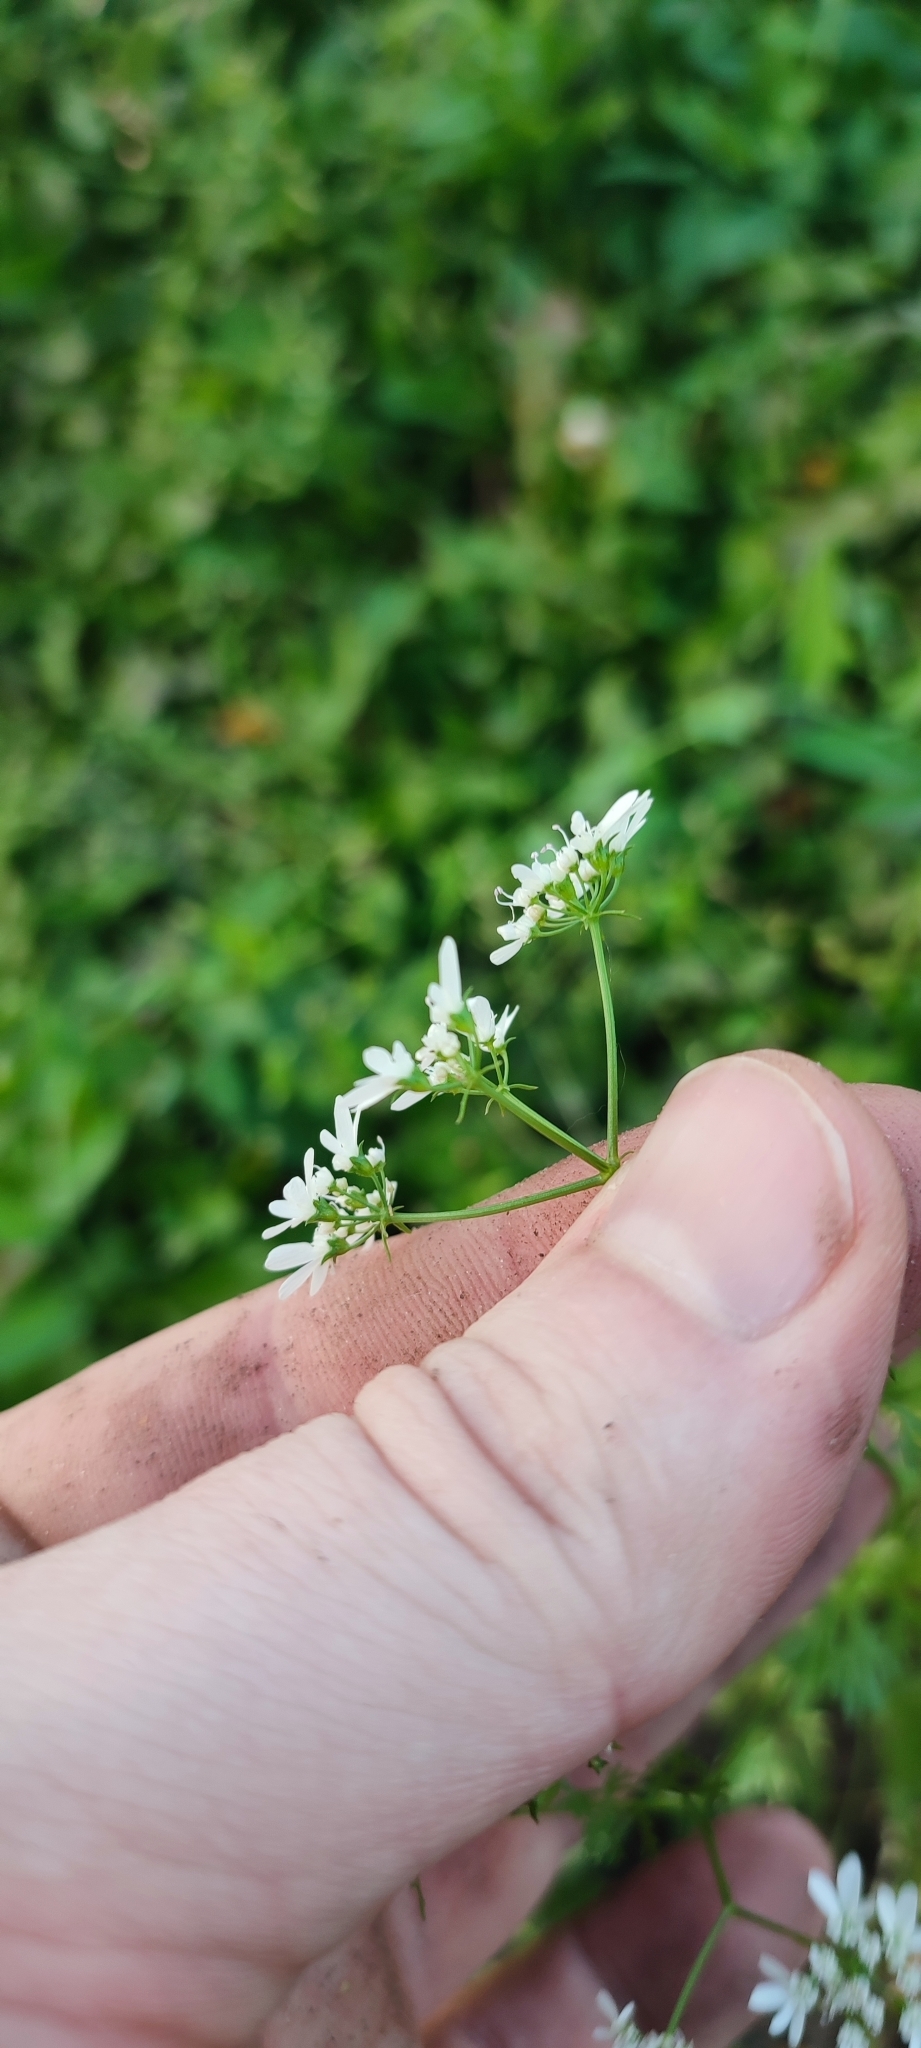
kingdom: Plantae
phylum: Tracheophyta
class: Magnoliopsida
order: Apiales
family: Apiaceae
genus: Coriandrum
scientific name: Coriandrum sativum
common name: Coriander
